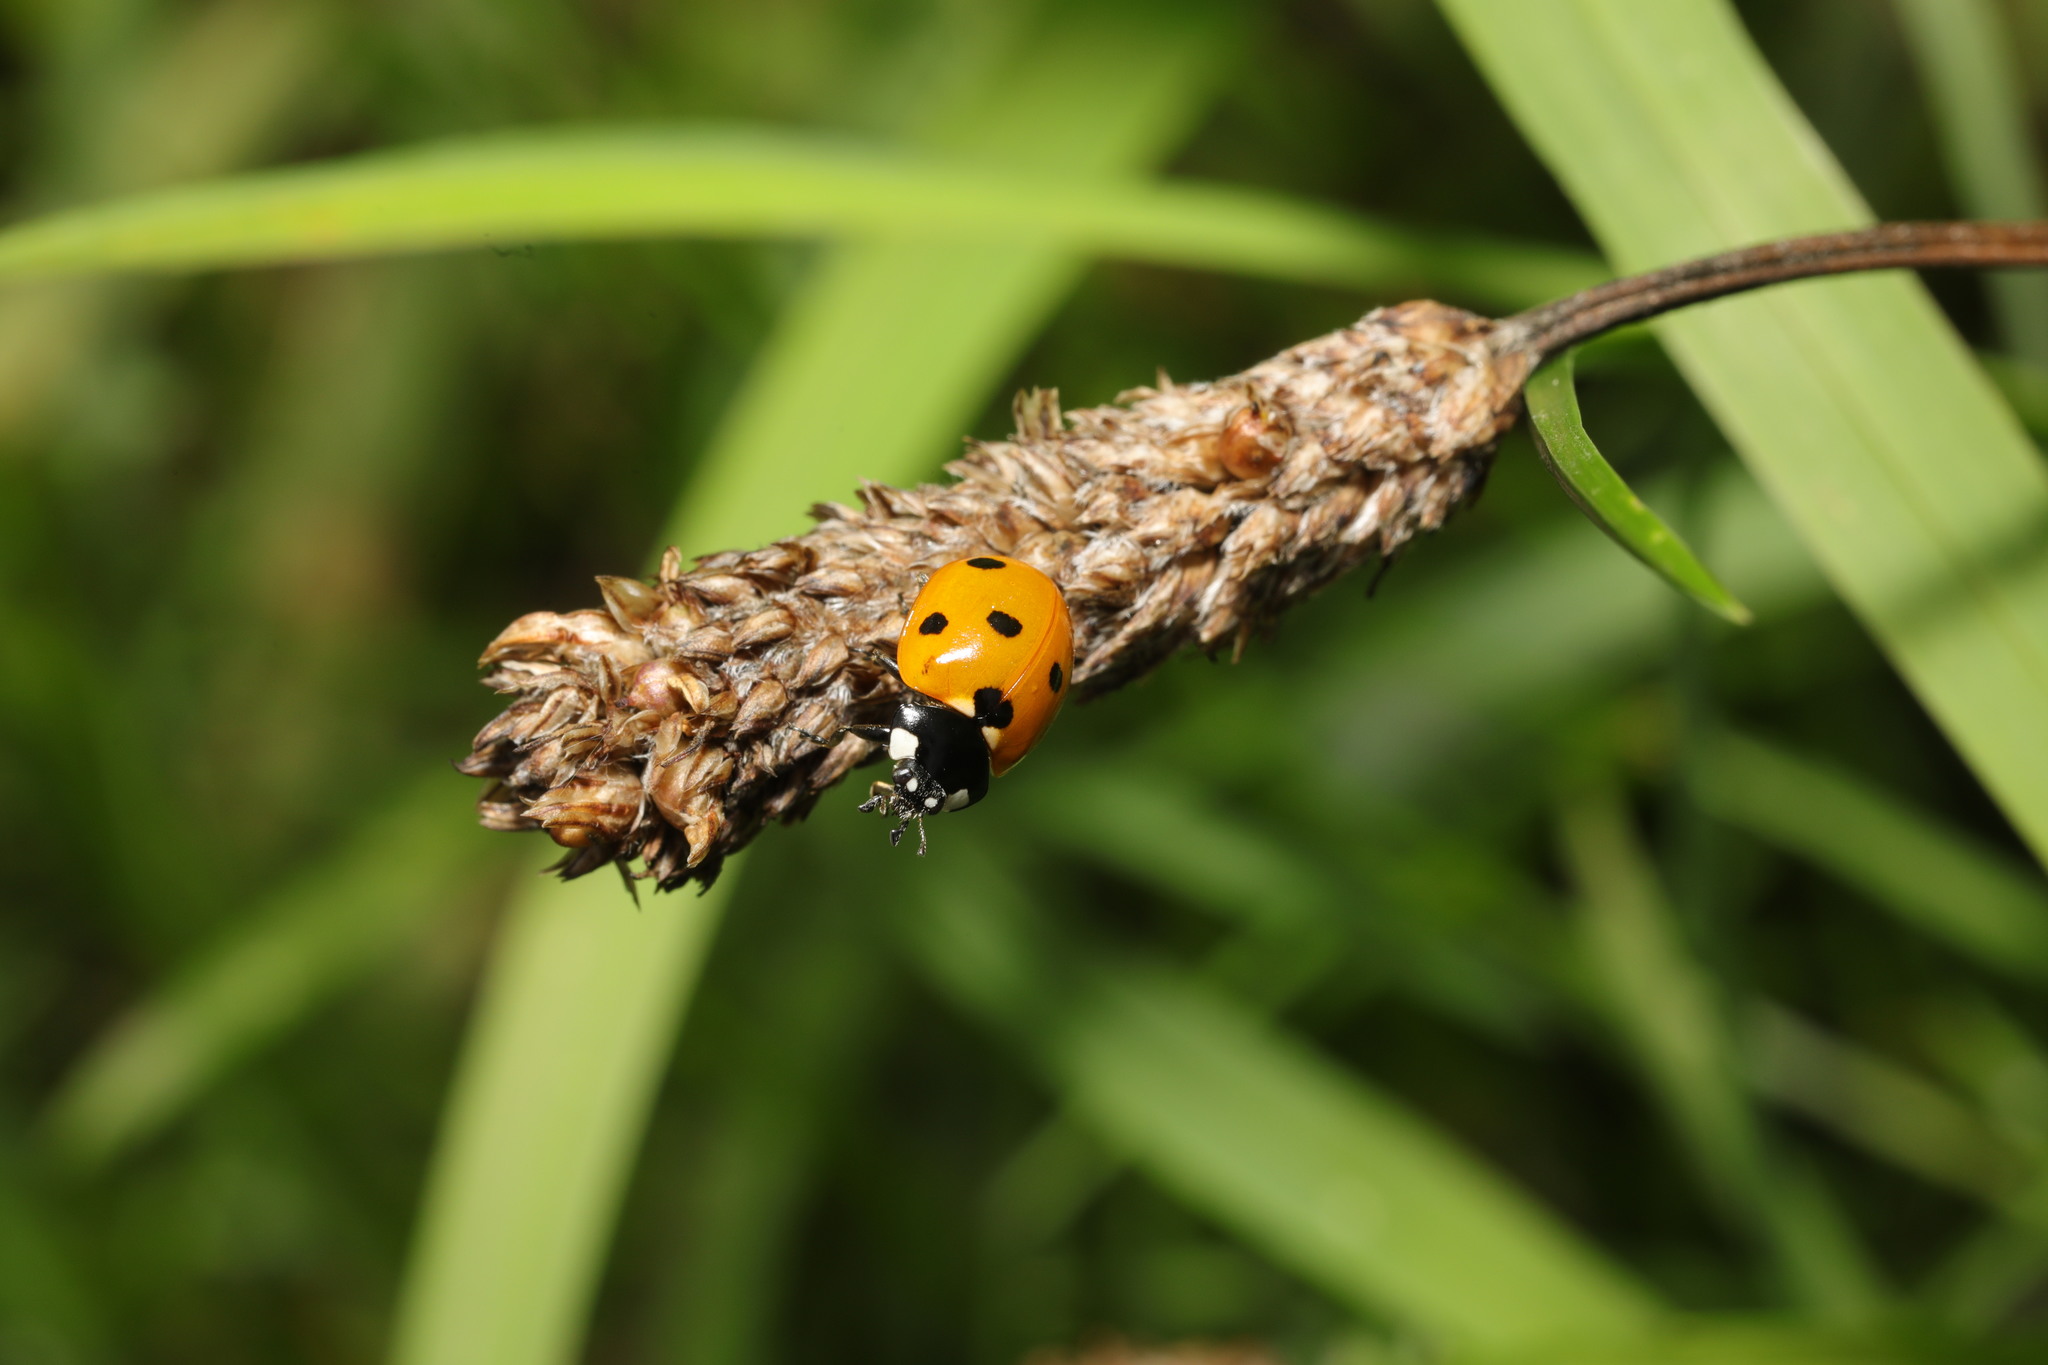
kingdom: Animalia
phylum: Arthropoda
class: Insecta
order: Coleoptera
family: Coccinellidae
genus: Coccinella
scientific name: Coccinella septempunctata
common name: Sevenspotted lady beetle
